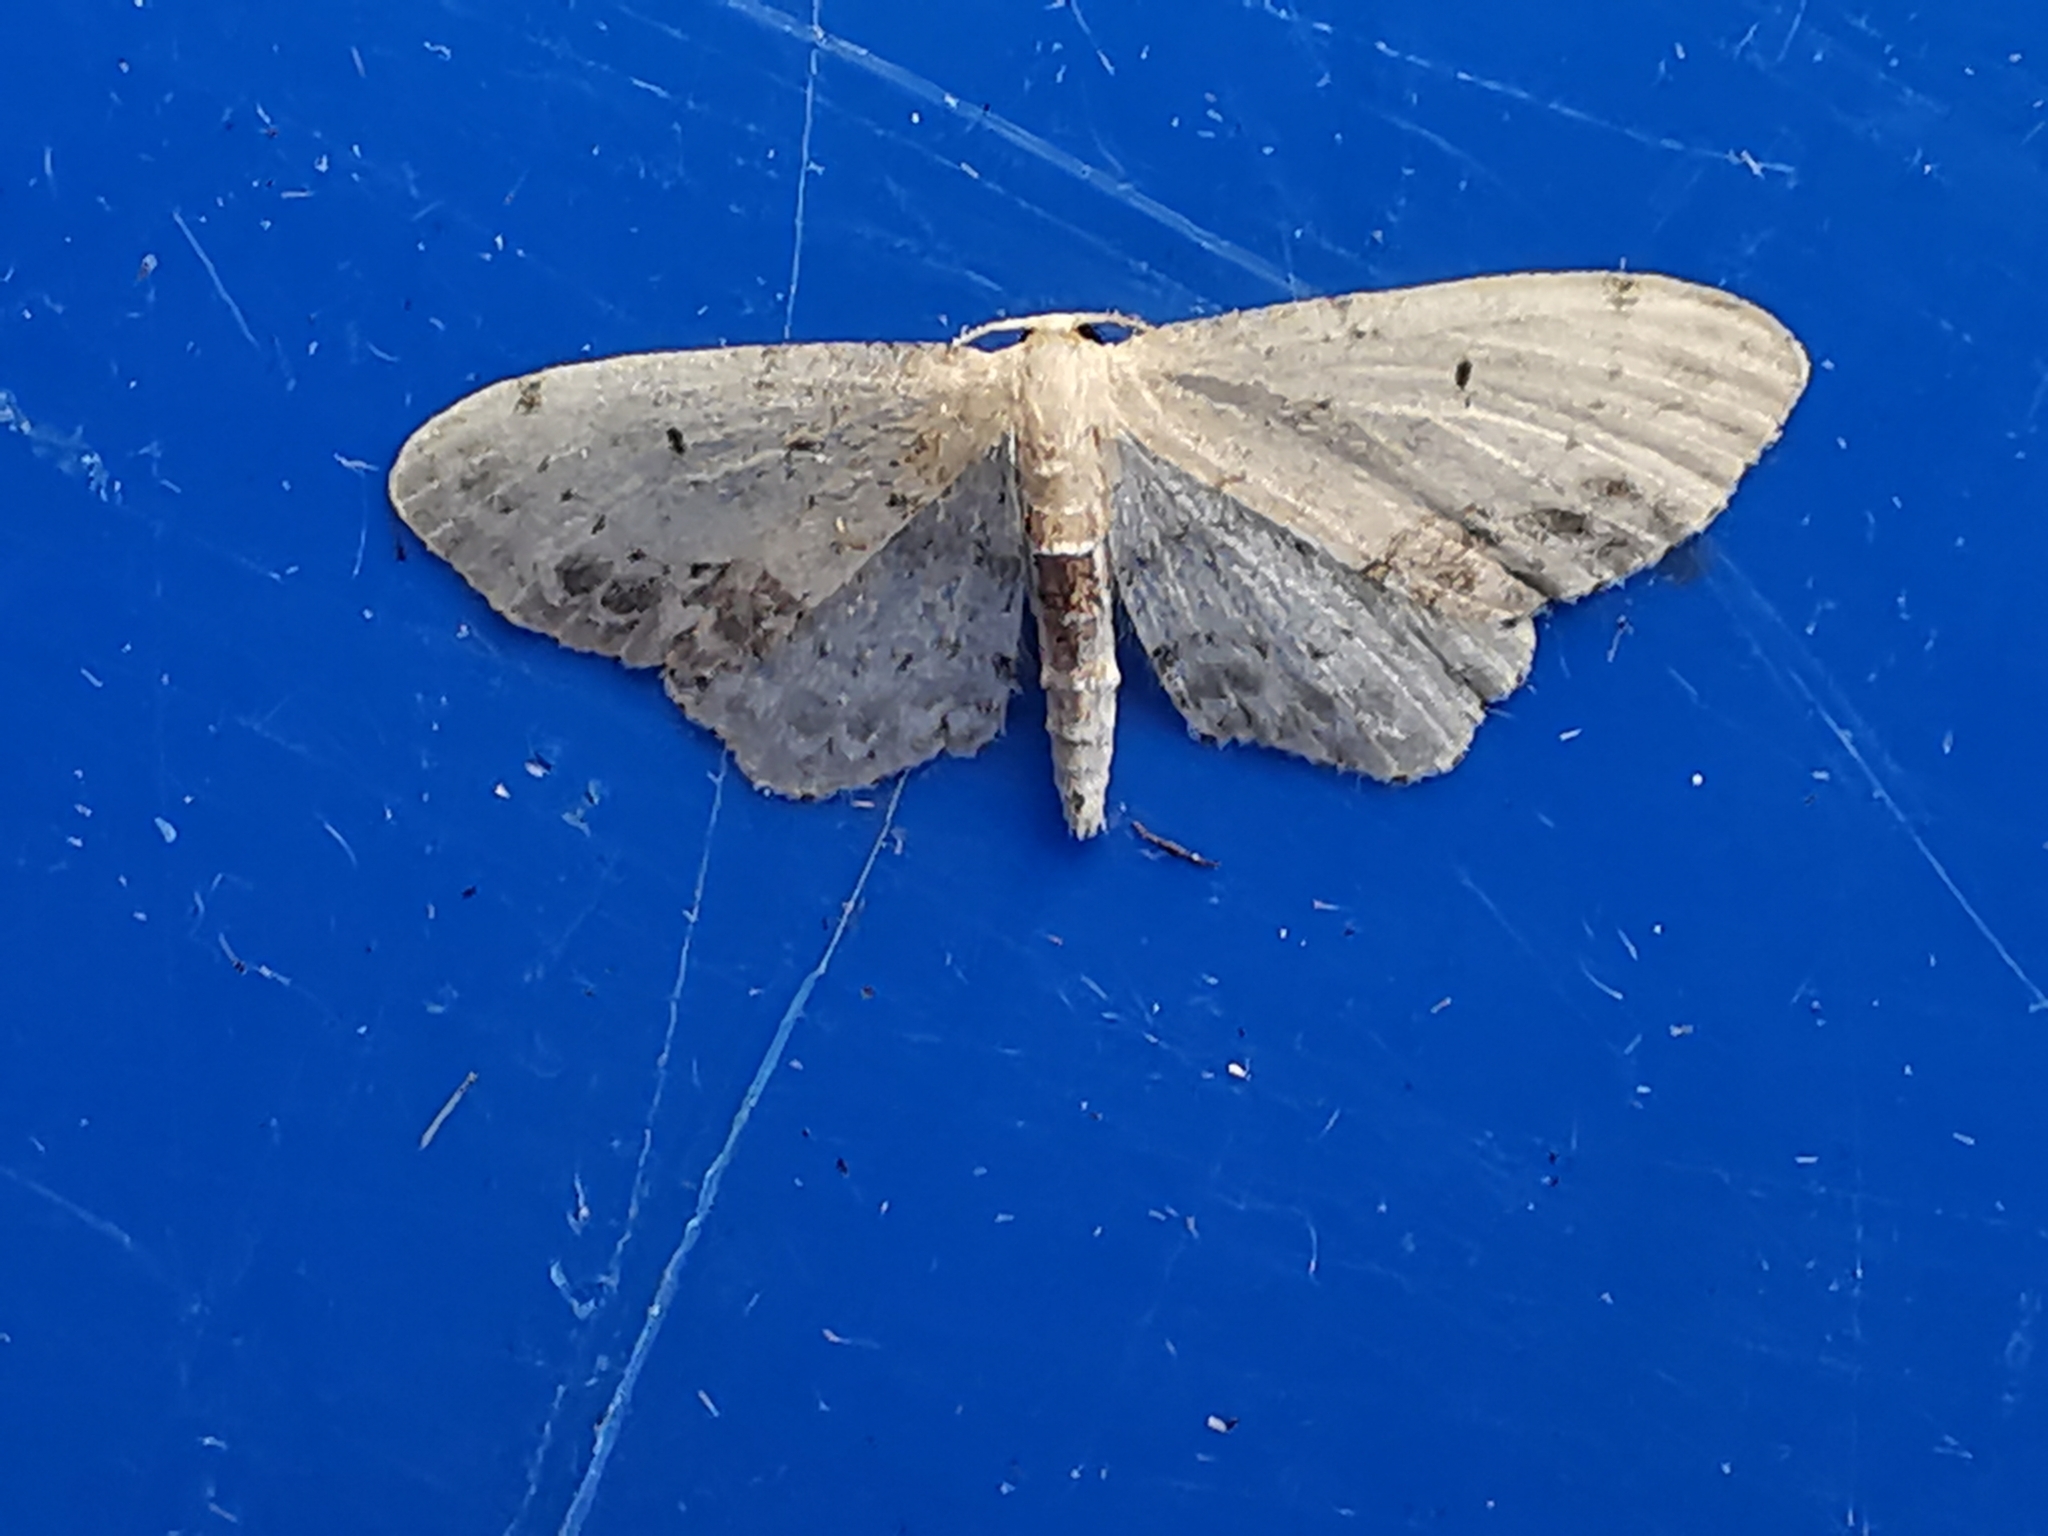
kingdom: Animalia
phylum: Arthropoda
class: Insecta
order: Lepidoptera
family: Geometridae
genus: Idaea
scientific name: Idaea dimidiata
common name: Single-dotted wave
